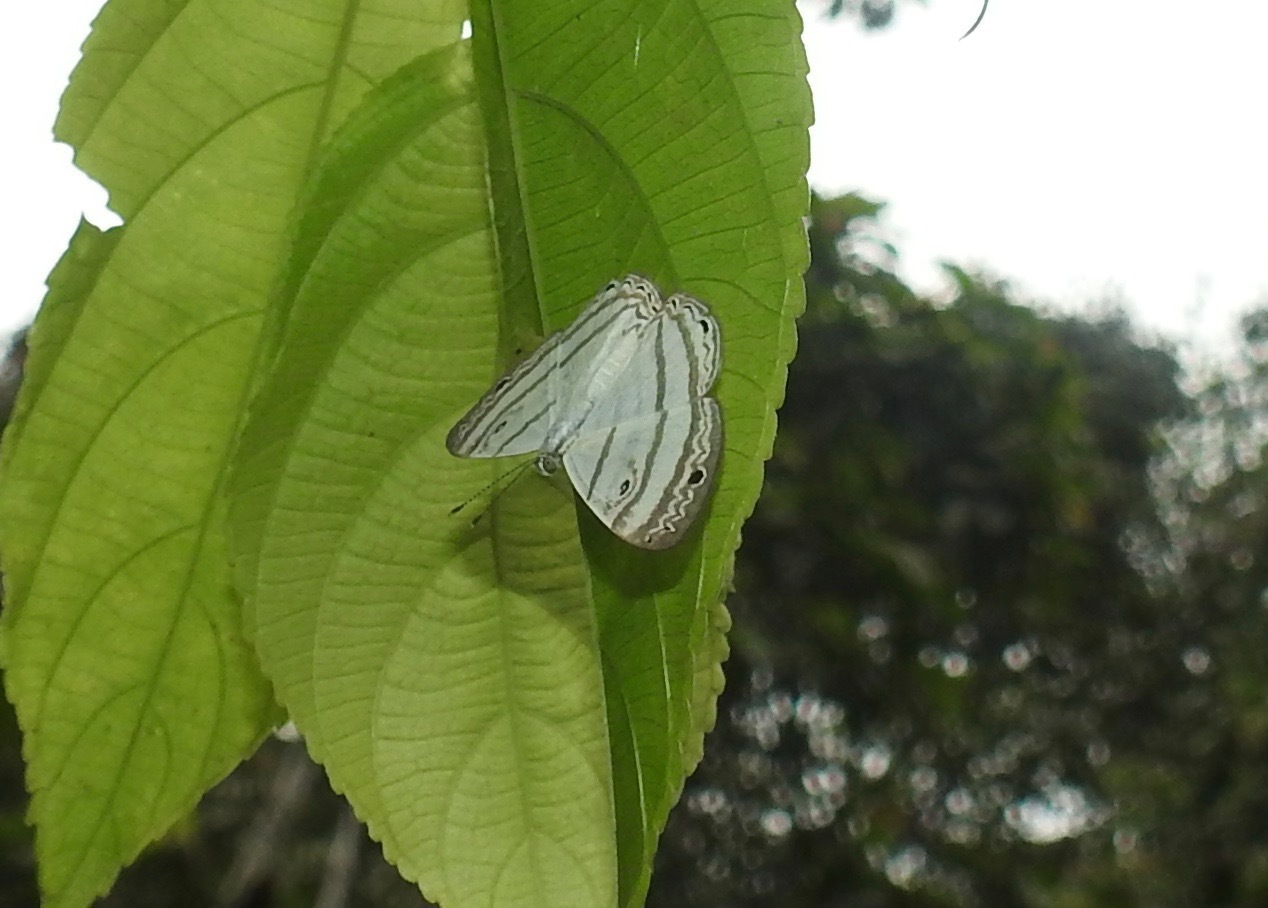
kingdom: Animalia
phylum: Arthropoda
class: Insecta
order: Lepidoptera
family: Riodinidae
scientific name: Riodinidae
